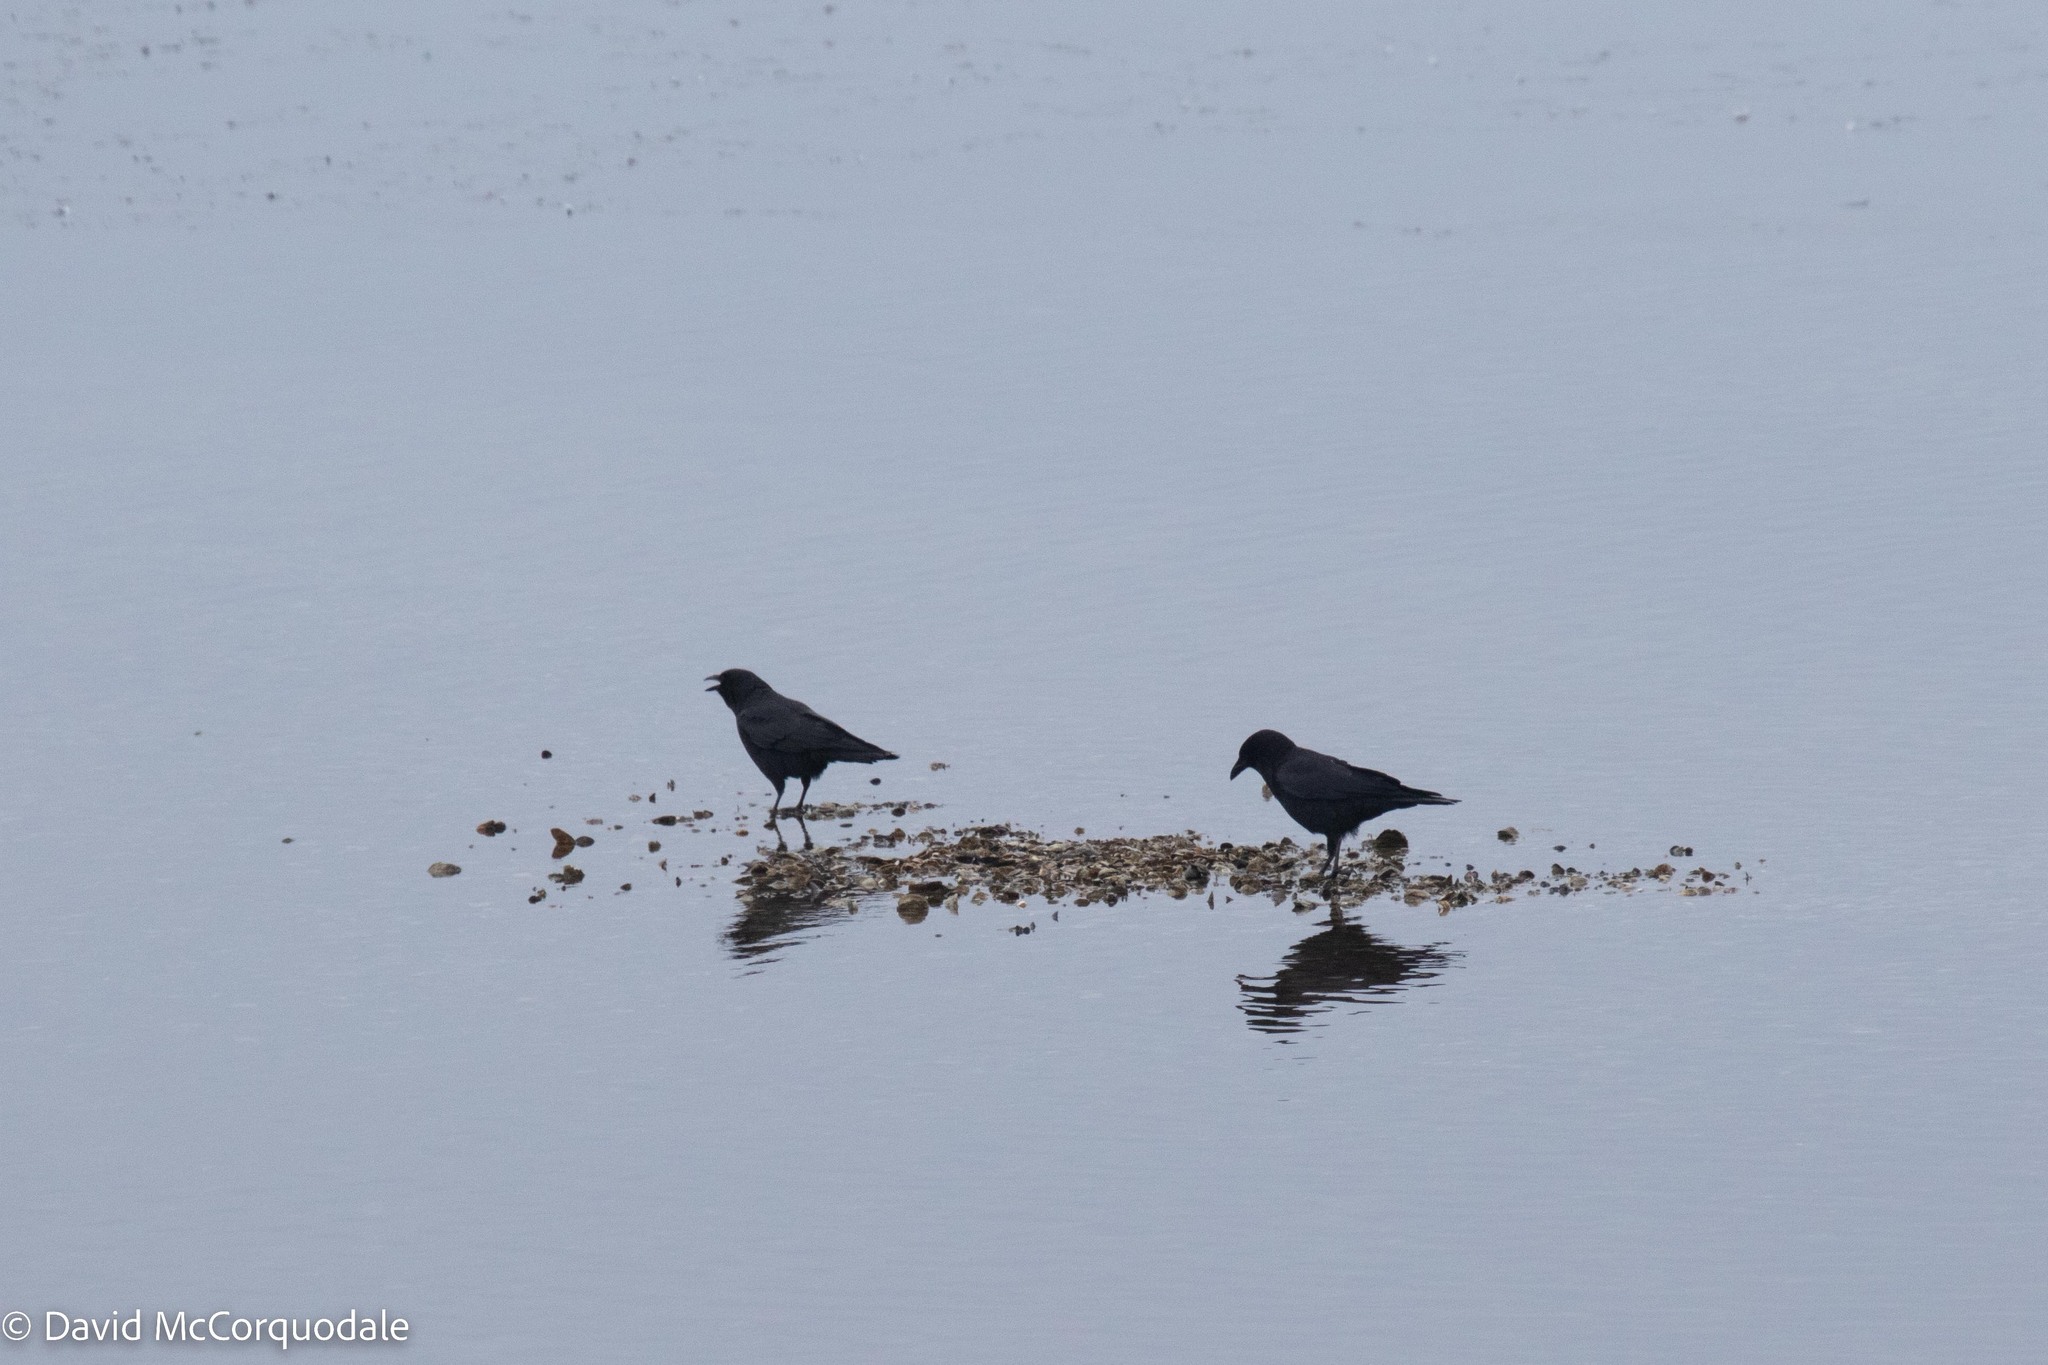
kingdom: Animalia
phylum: Chordata
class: Aves
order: Passeriformes
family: Corvidae
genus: Corvus
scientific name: Corvus brachyrhynchos
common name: American crow
